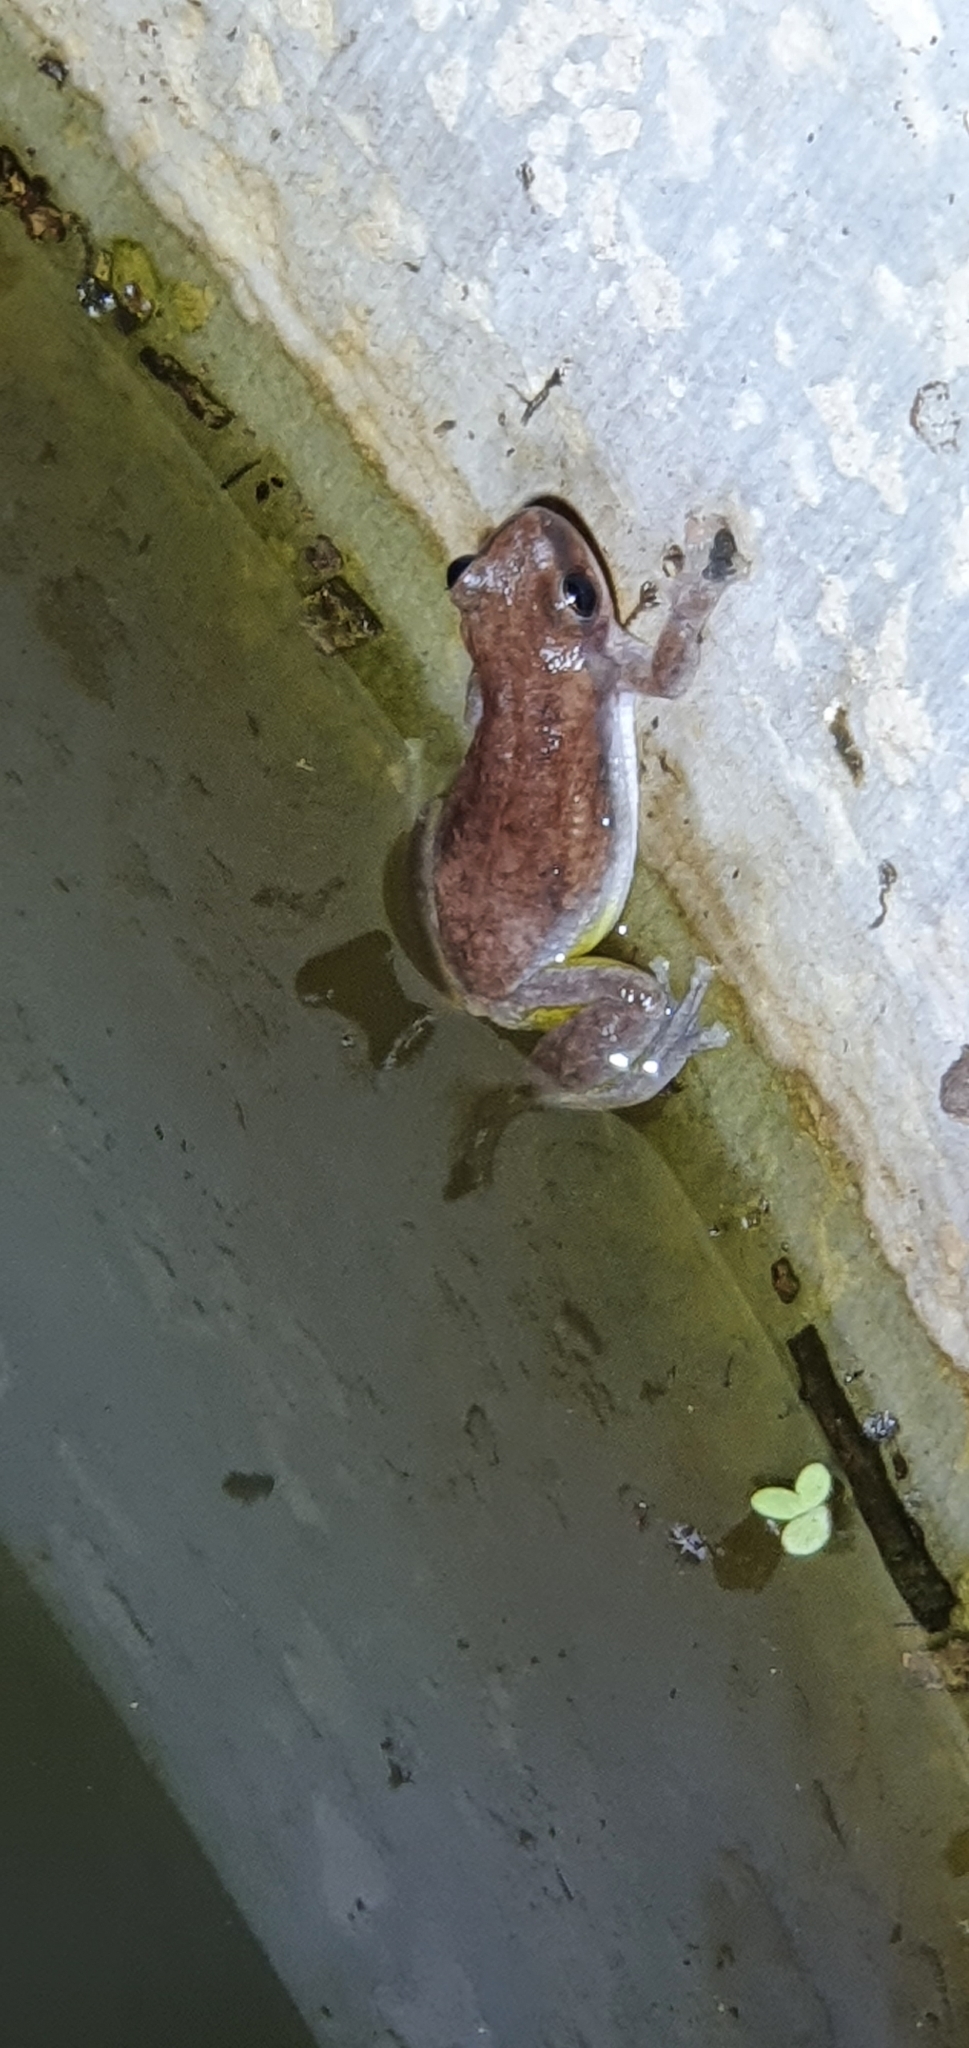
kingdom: Animalia
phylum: Chordata
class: Amphibia
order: Anura
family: Pelodryadidae
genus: Litoria
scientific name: Litoria rubella
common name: Desert tree frog
